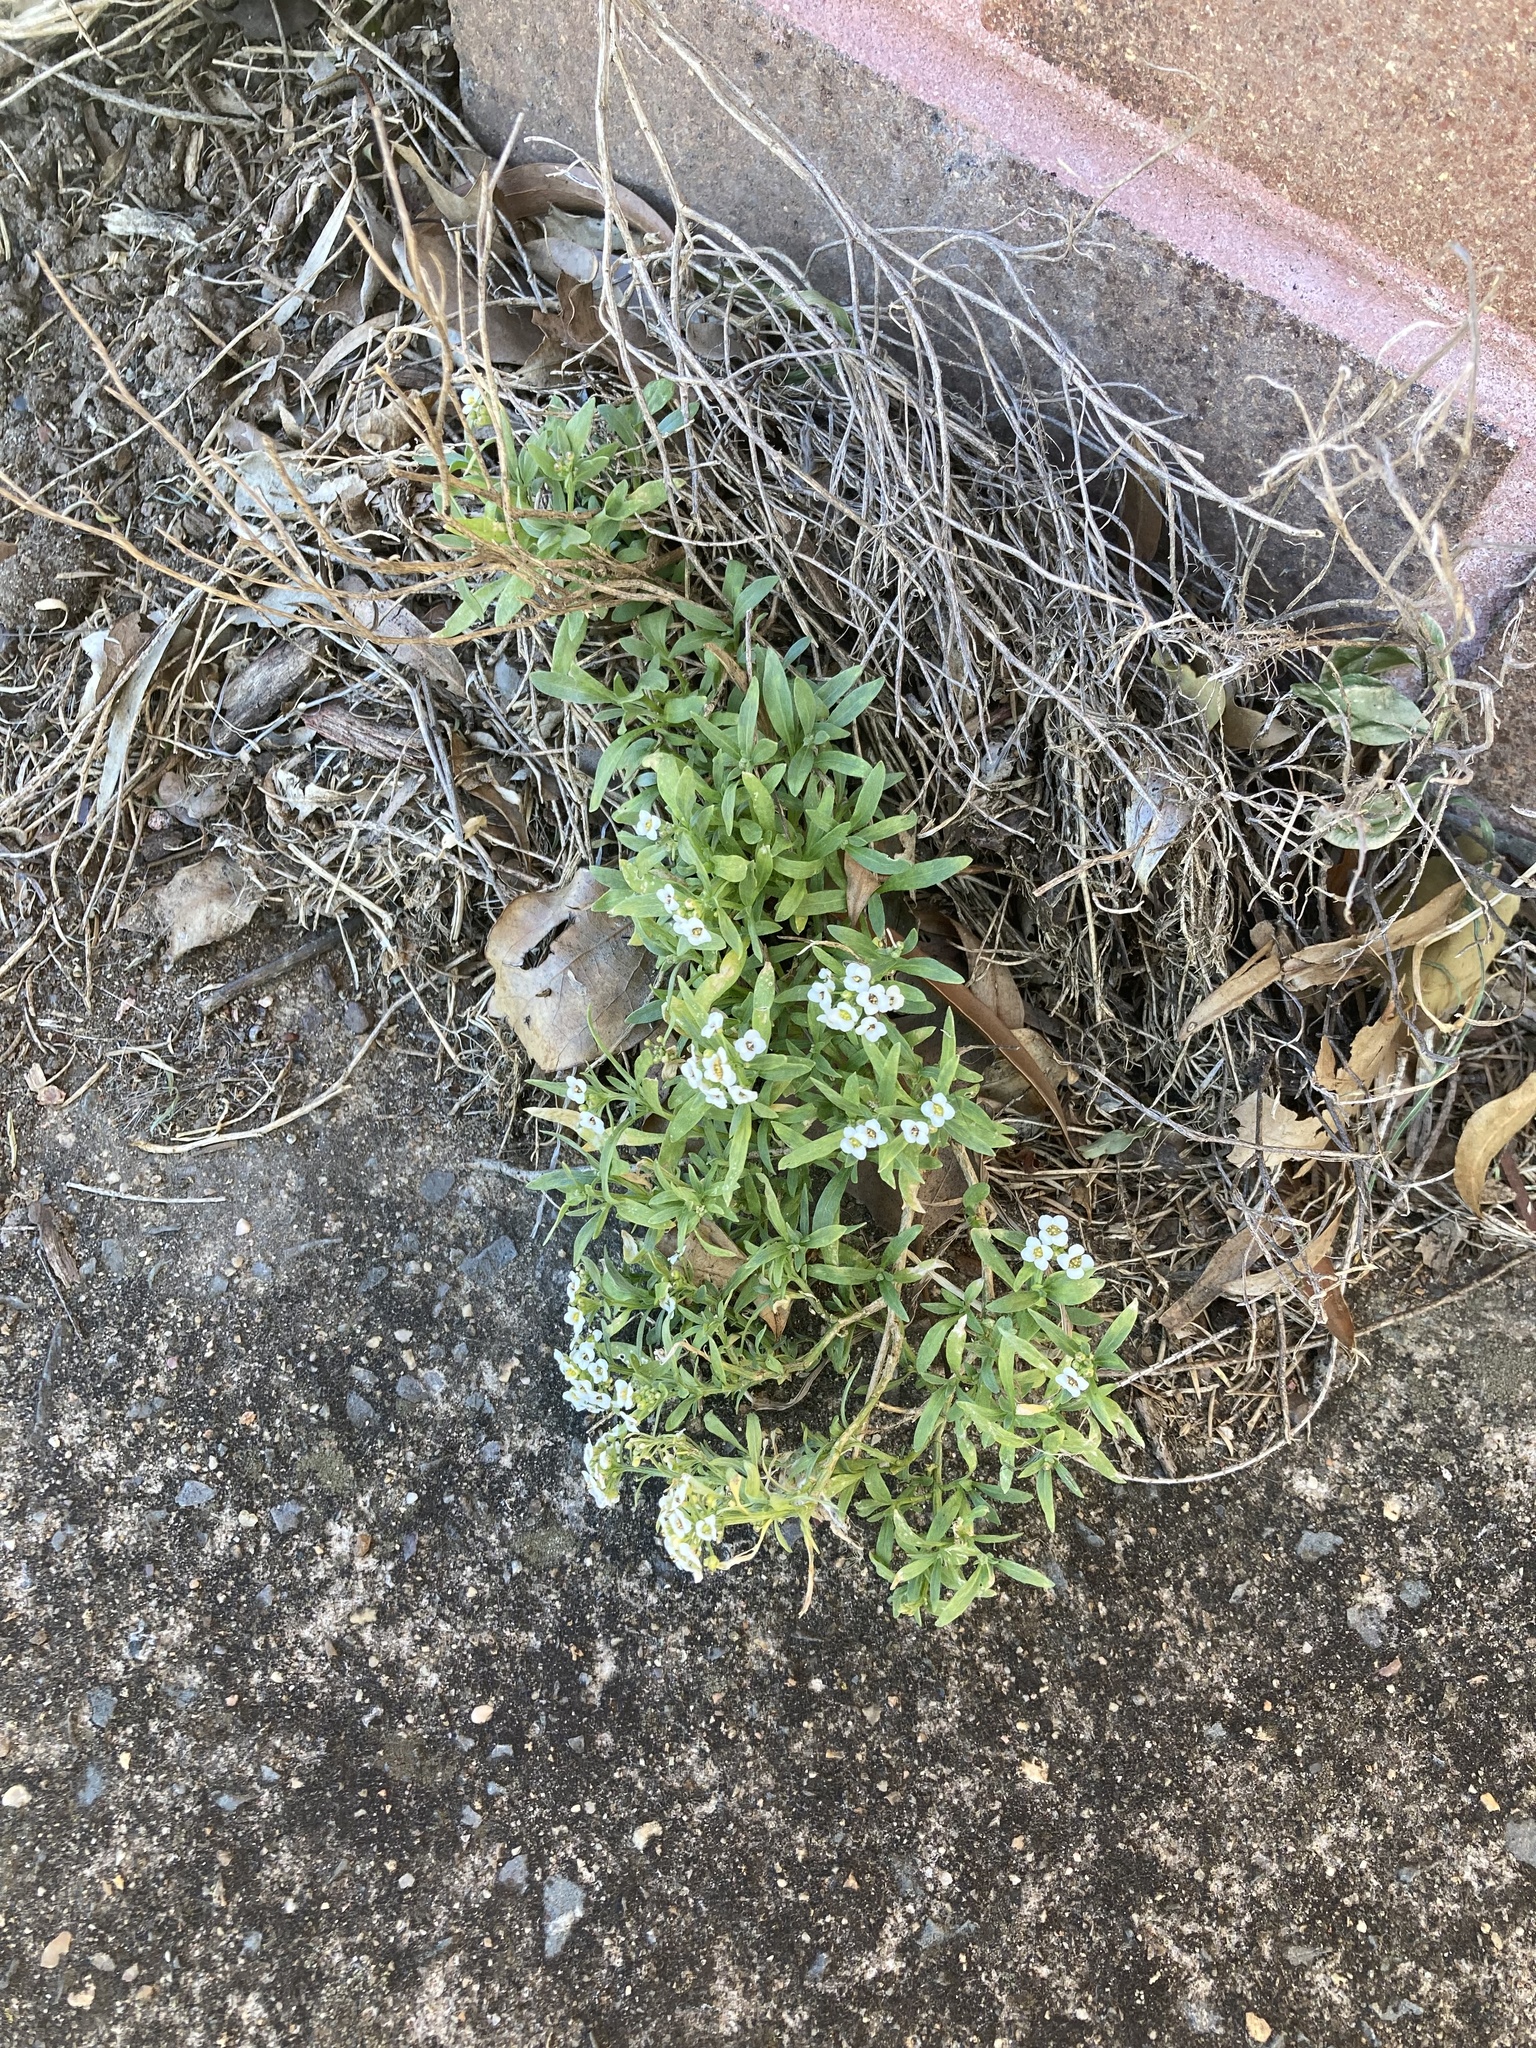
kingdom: Plantae
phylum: Tracheophyta
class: Magnoliopsida
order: Brassicales
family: Brassicaceae
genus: Lobularia
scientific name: Lobularia maritima
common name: Sweet alison
